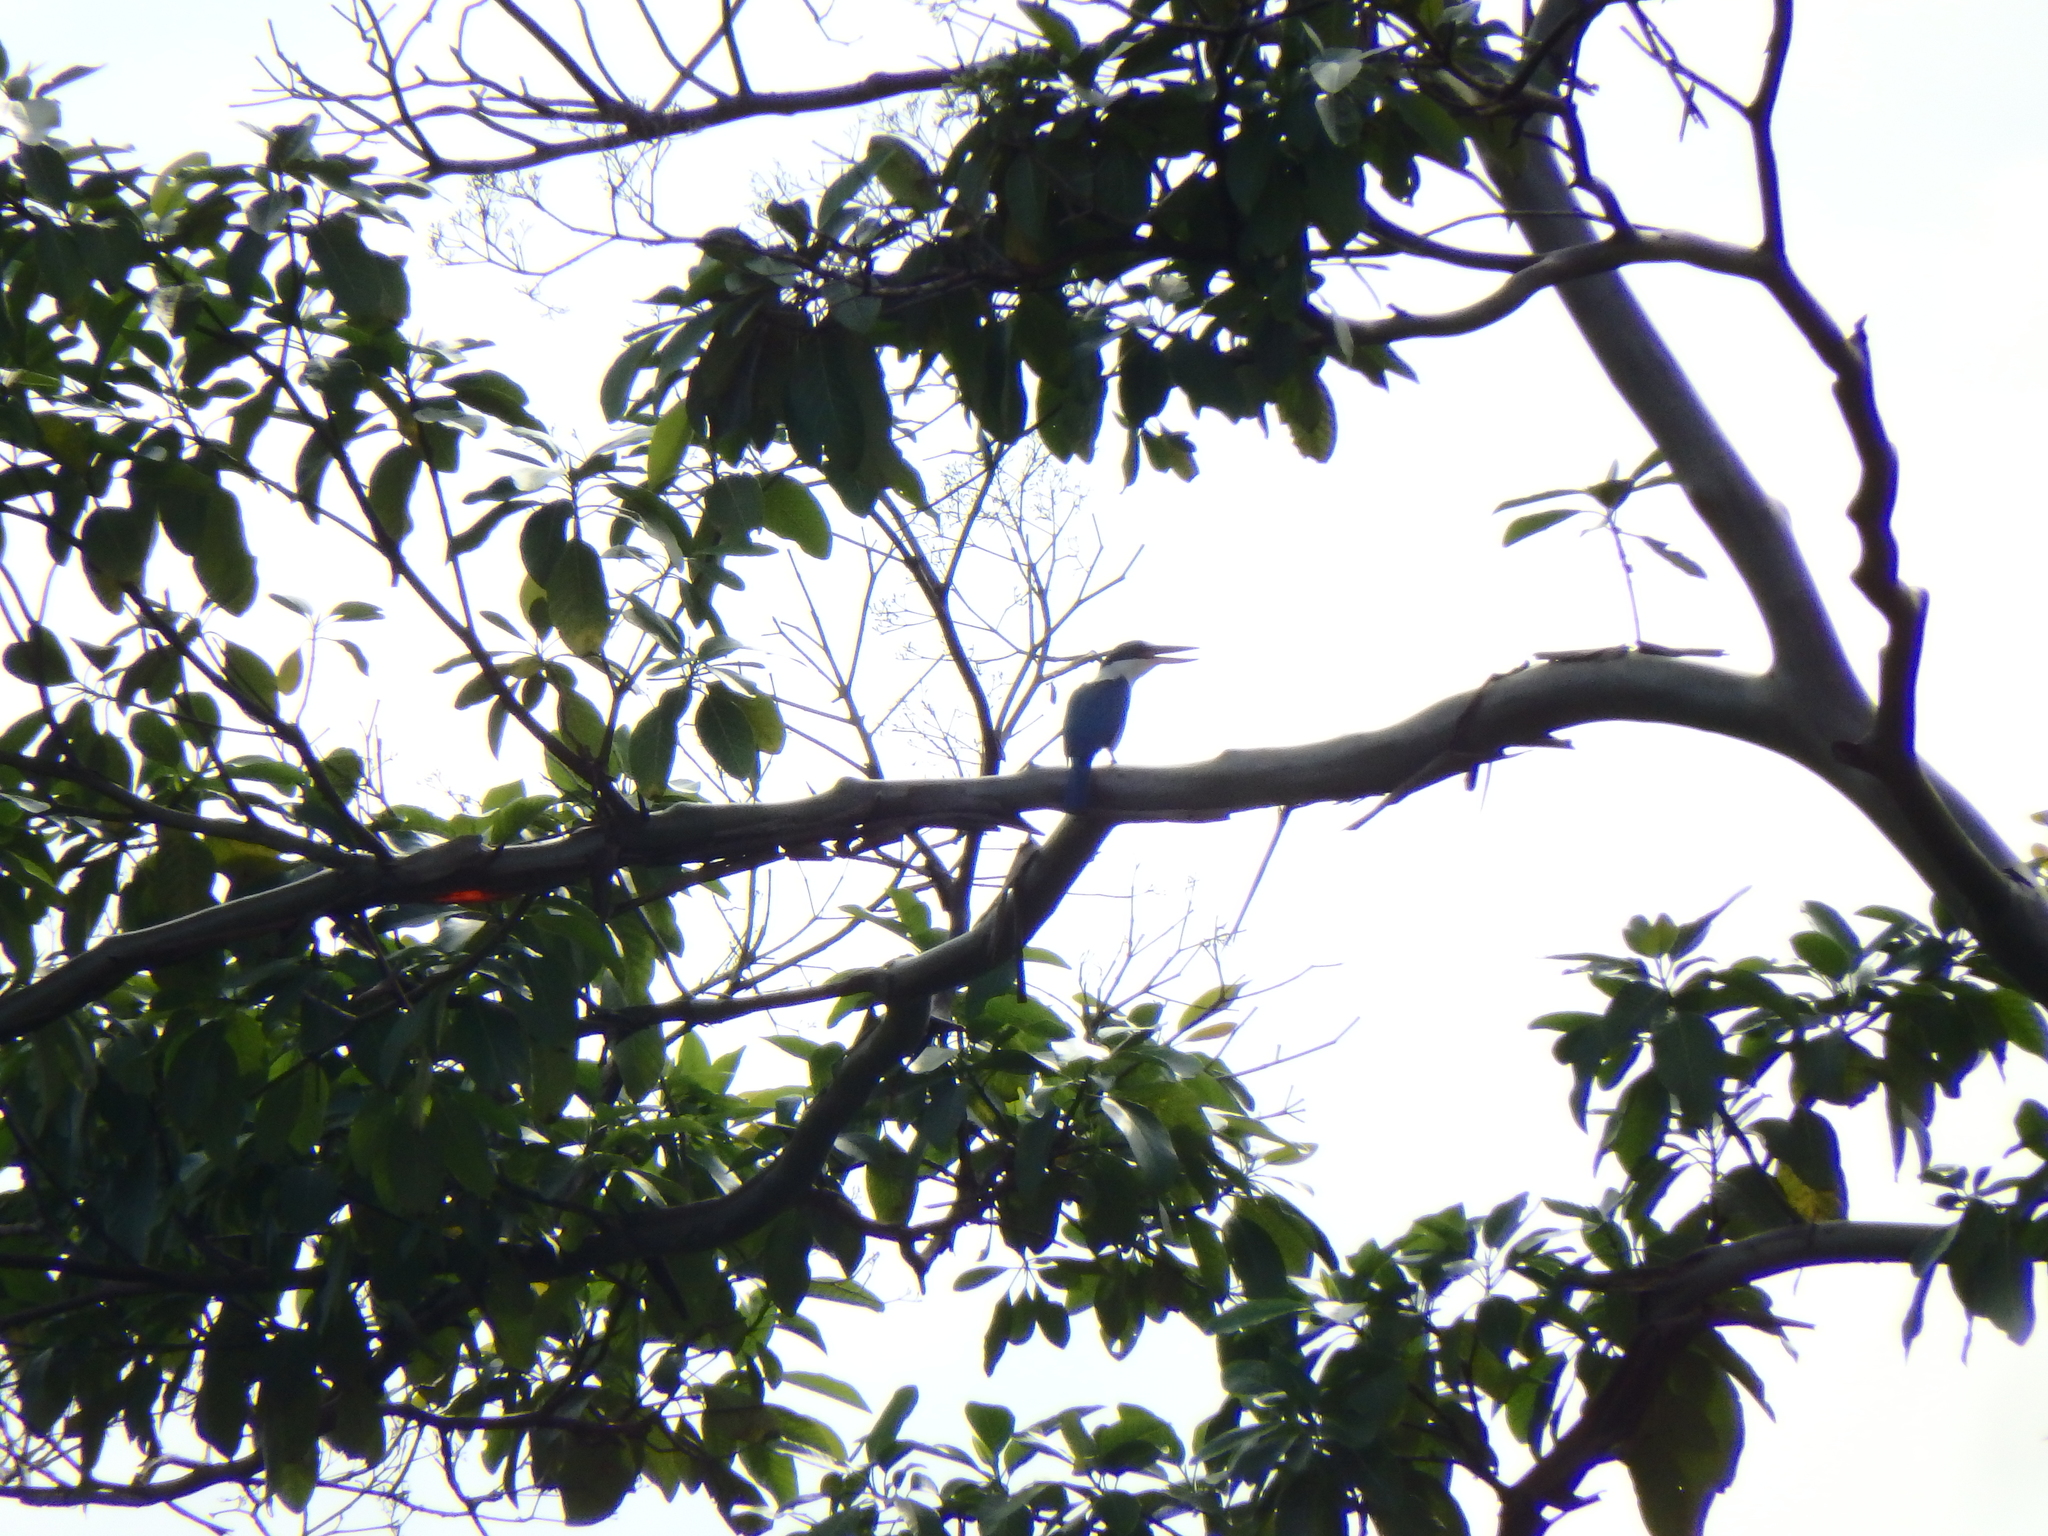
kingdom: Animalia
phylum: Chordata
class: Aves
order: Coraciiformes
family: Alcedinidae
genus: Todiramphus
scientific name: Todiramphus chloris
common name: Collared kingfisher
